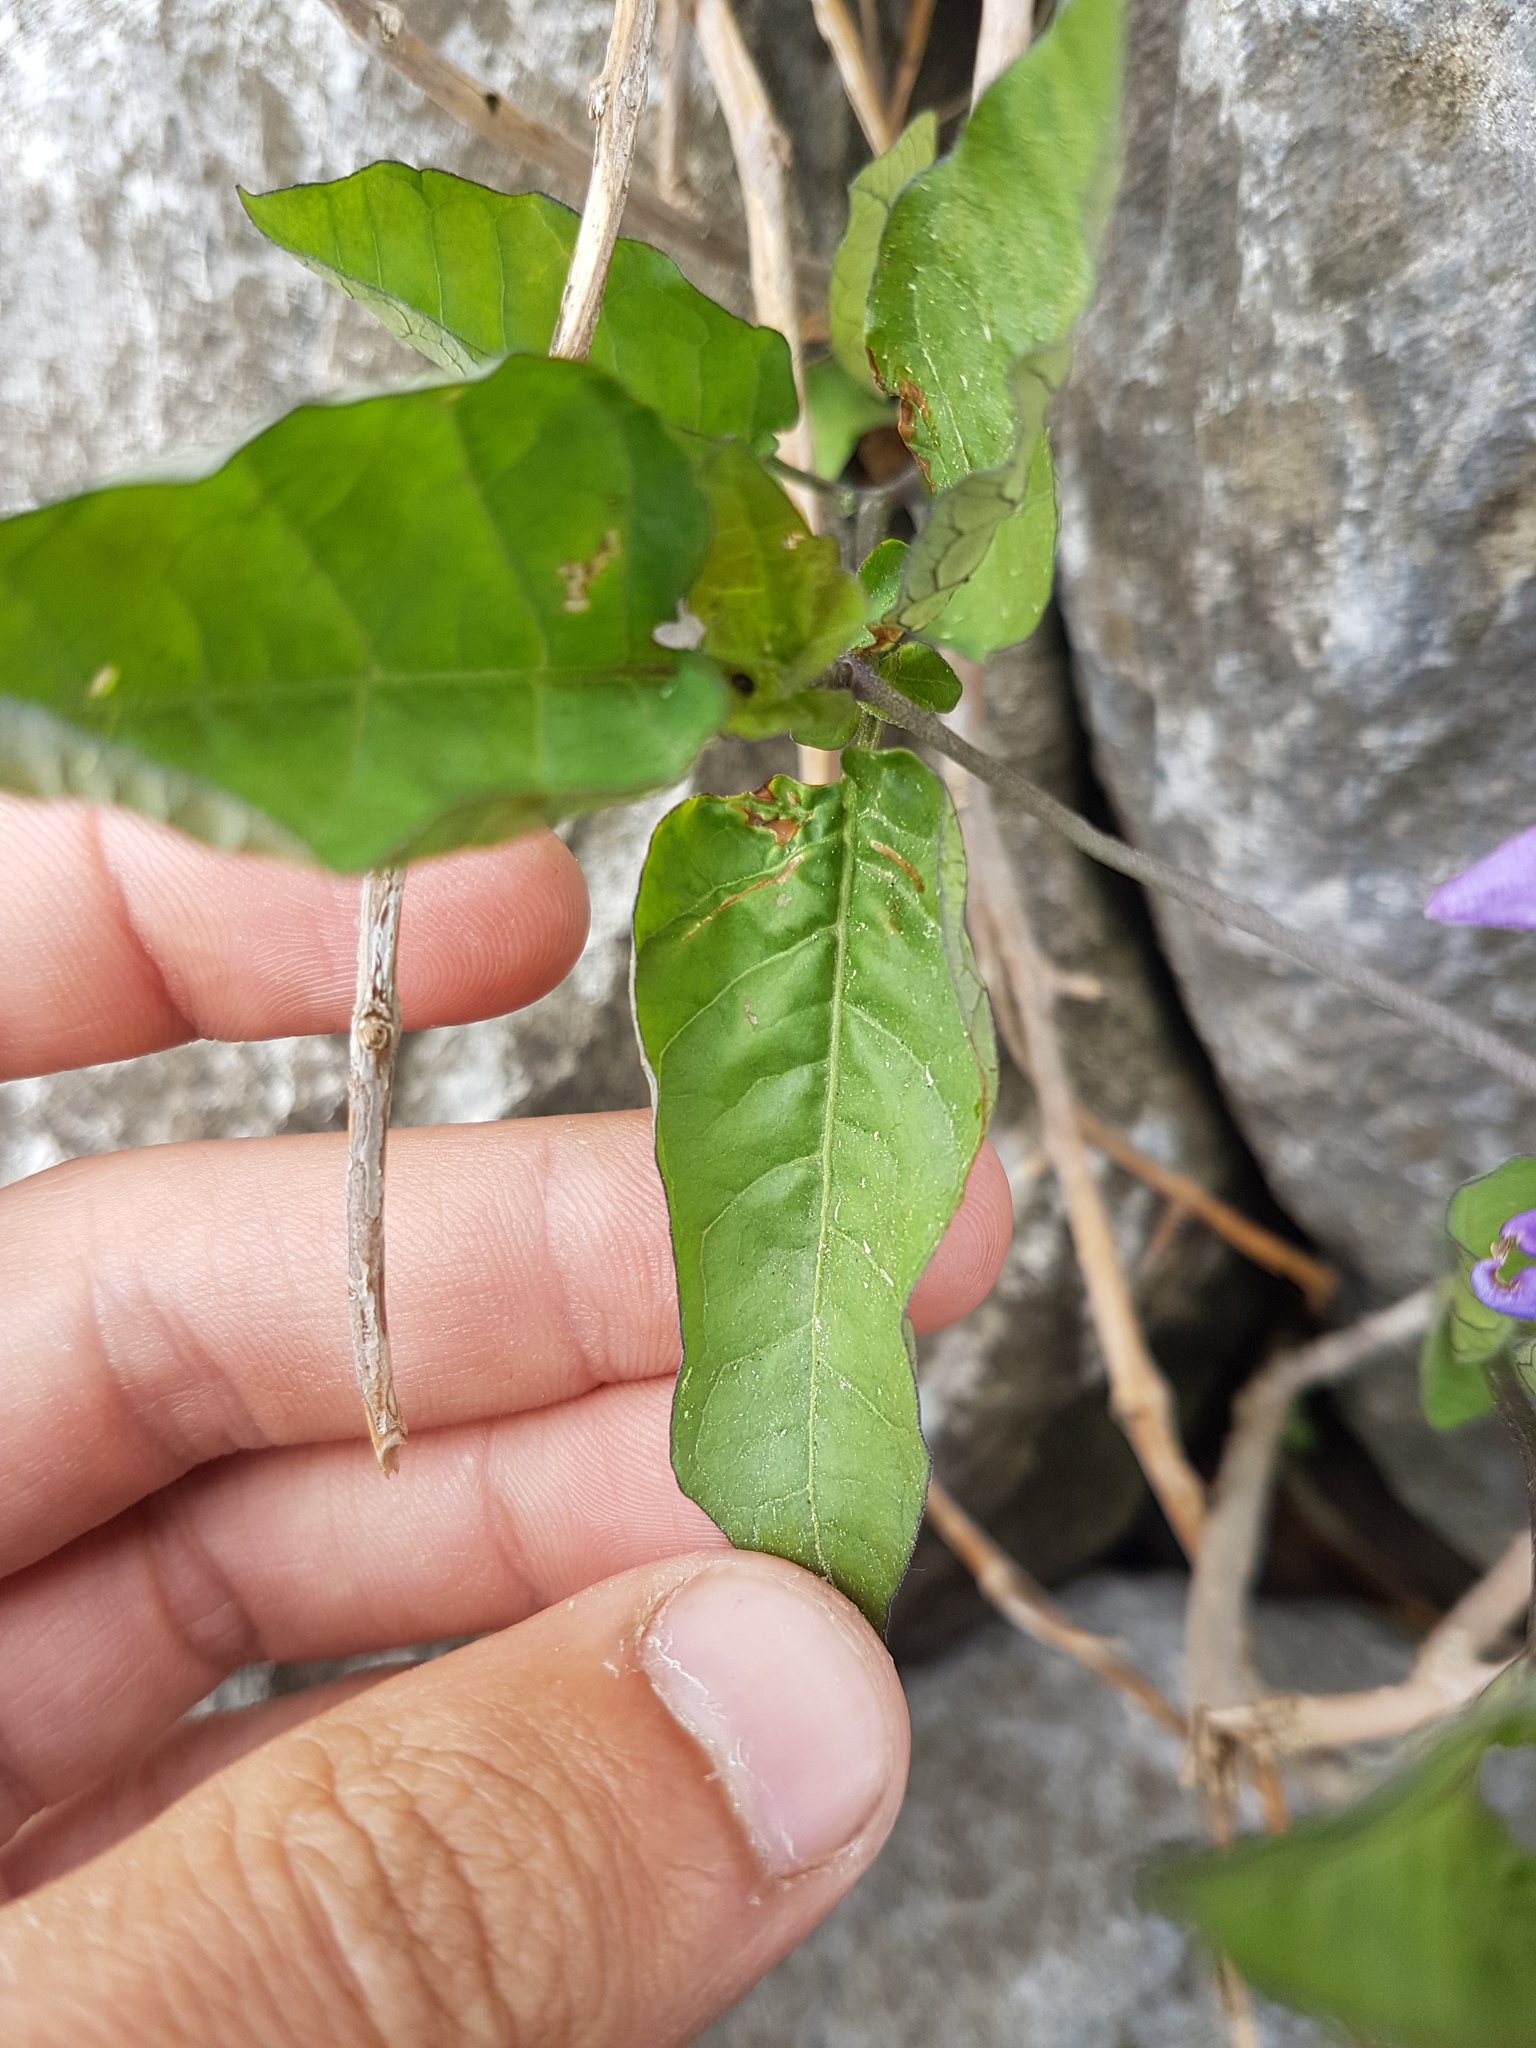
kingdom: Plantae
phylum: Tracheophyta
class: Magnoliopsida
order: Solanales
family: Solanaceae
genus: Solanum
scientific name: Solanum dulcamara
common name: Climbing nightshade
